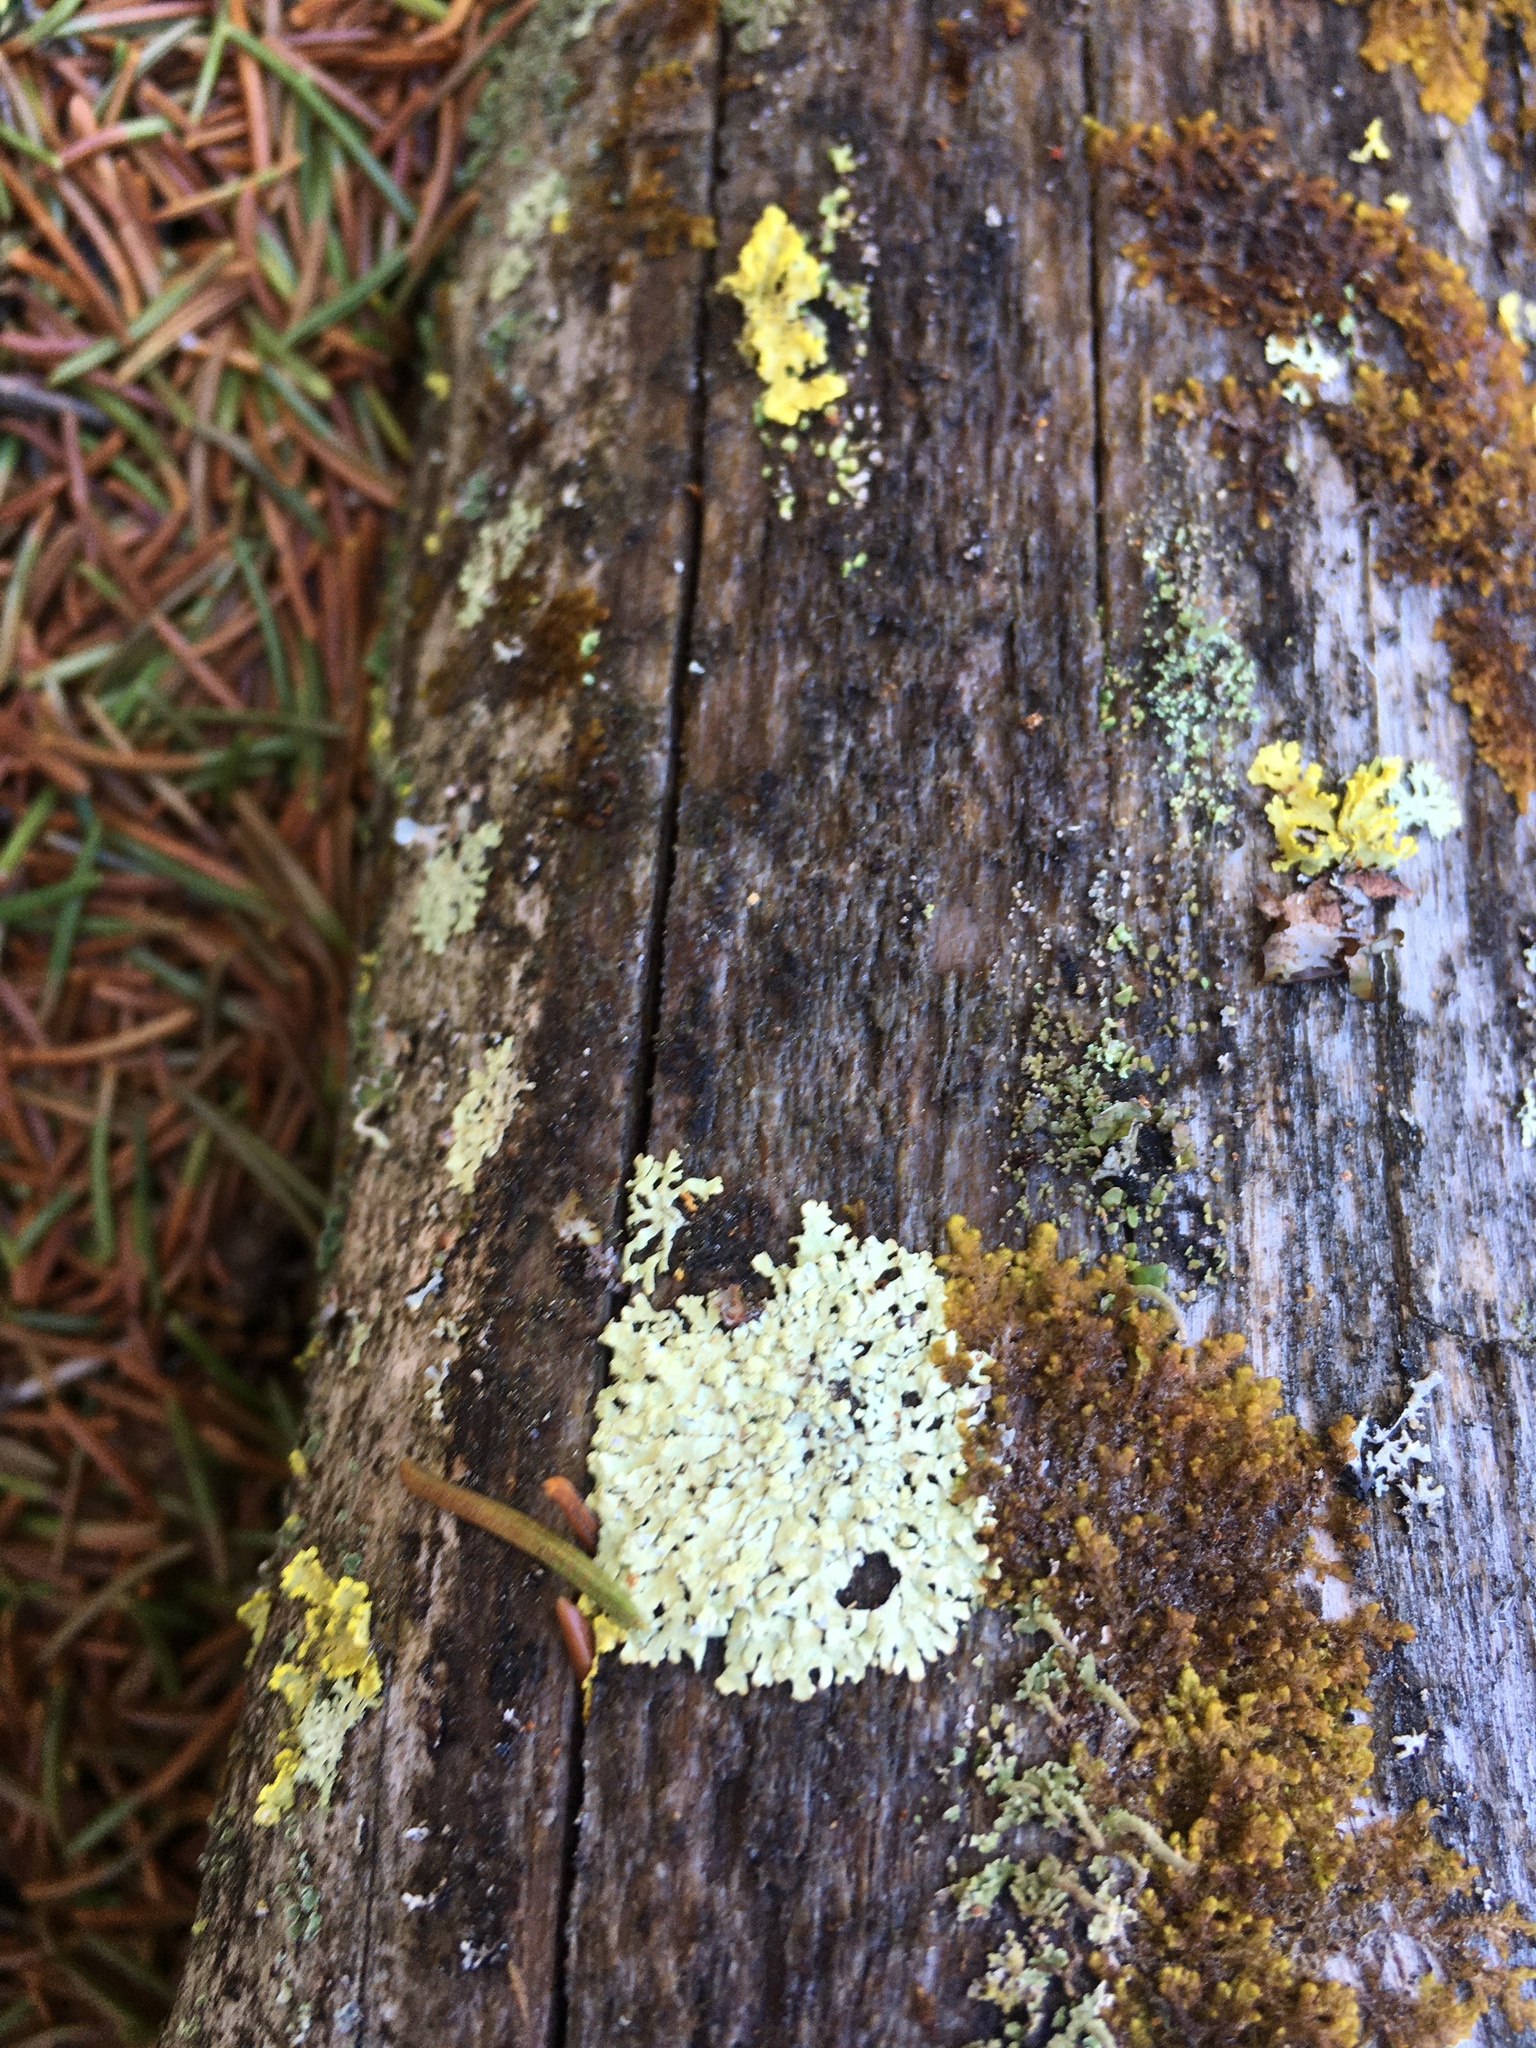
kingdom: Fungi
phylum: Ascomycota
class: Lecanoromycetes
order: Lecanorales
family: Parmeliaceae
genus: Parmeliopsis
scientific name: Parmeliopsis ambigua
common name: Green starburst lichen
